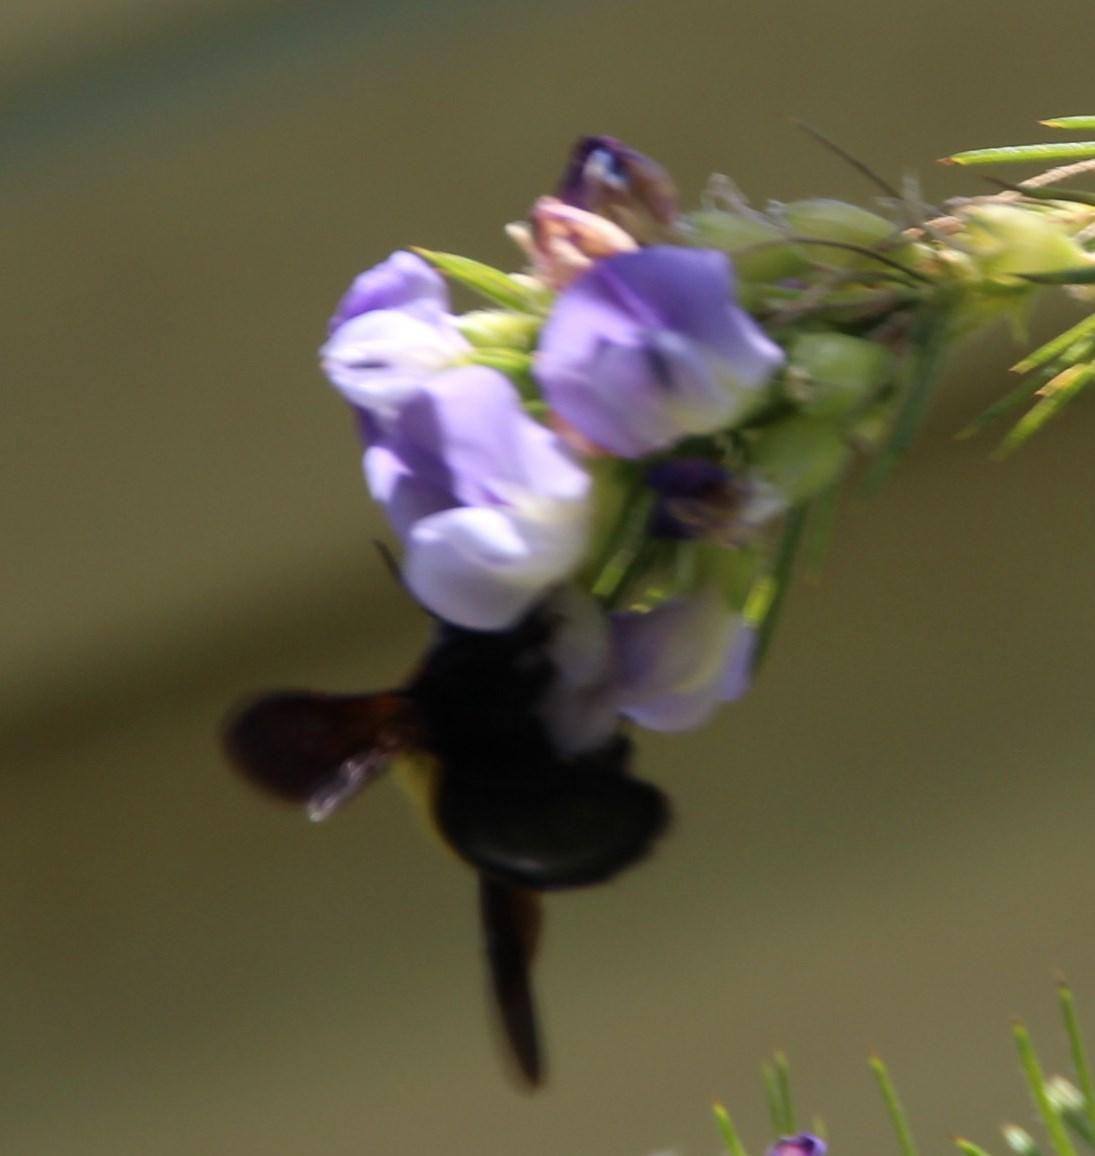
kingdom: Plantae
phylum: Tracheophyta
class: Magnoliopsida
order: Fabales
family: Fabaceae
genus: Psoralea
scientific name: Psoralea pinnata
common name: African scurfpea
